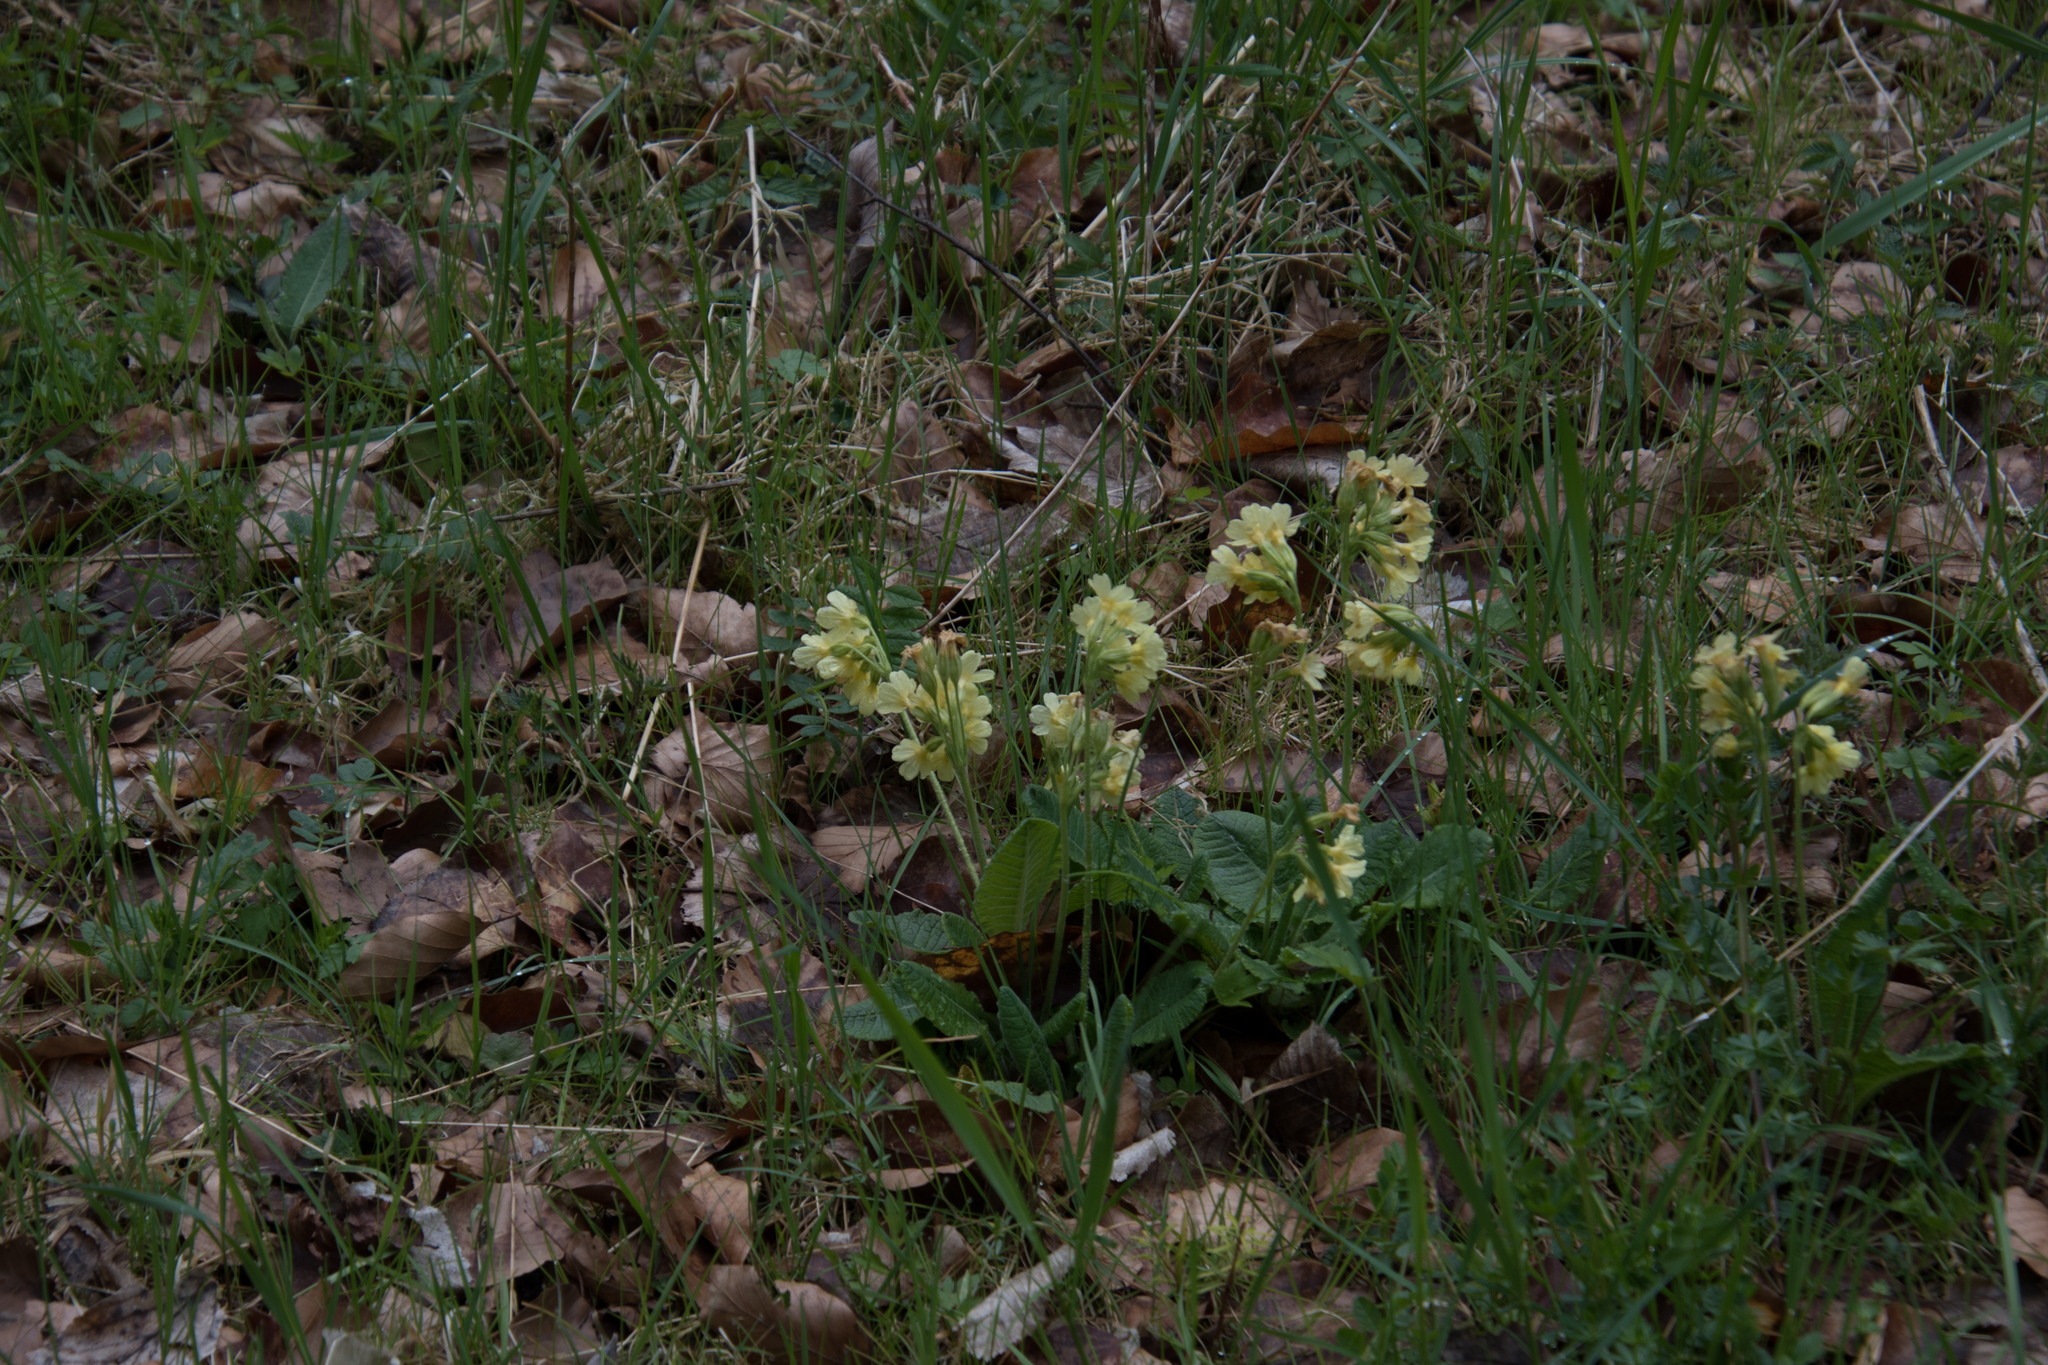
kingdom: Plantae
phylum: Tracheophyta
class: Magnoliopsida
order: Ericales
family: Primulaceae
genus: Primula
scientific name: Primula elatior
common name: Oxlip
